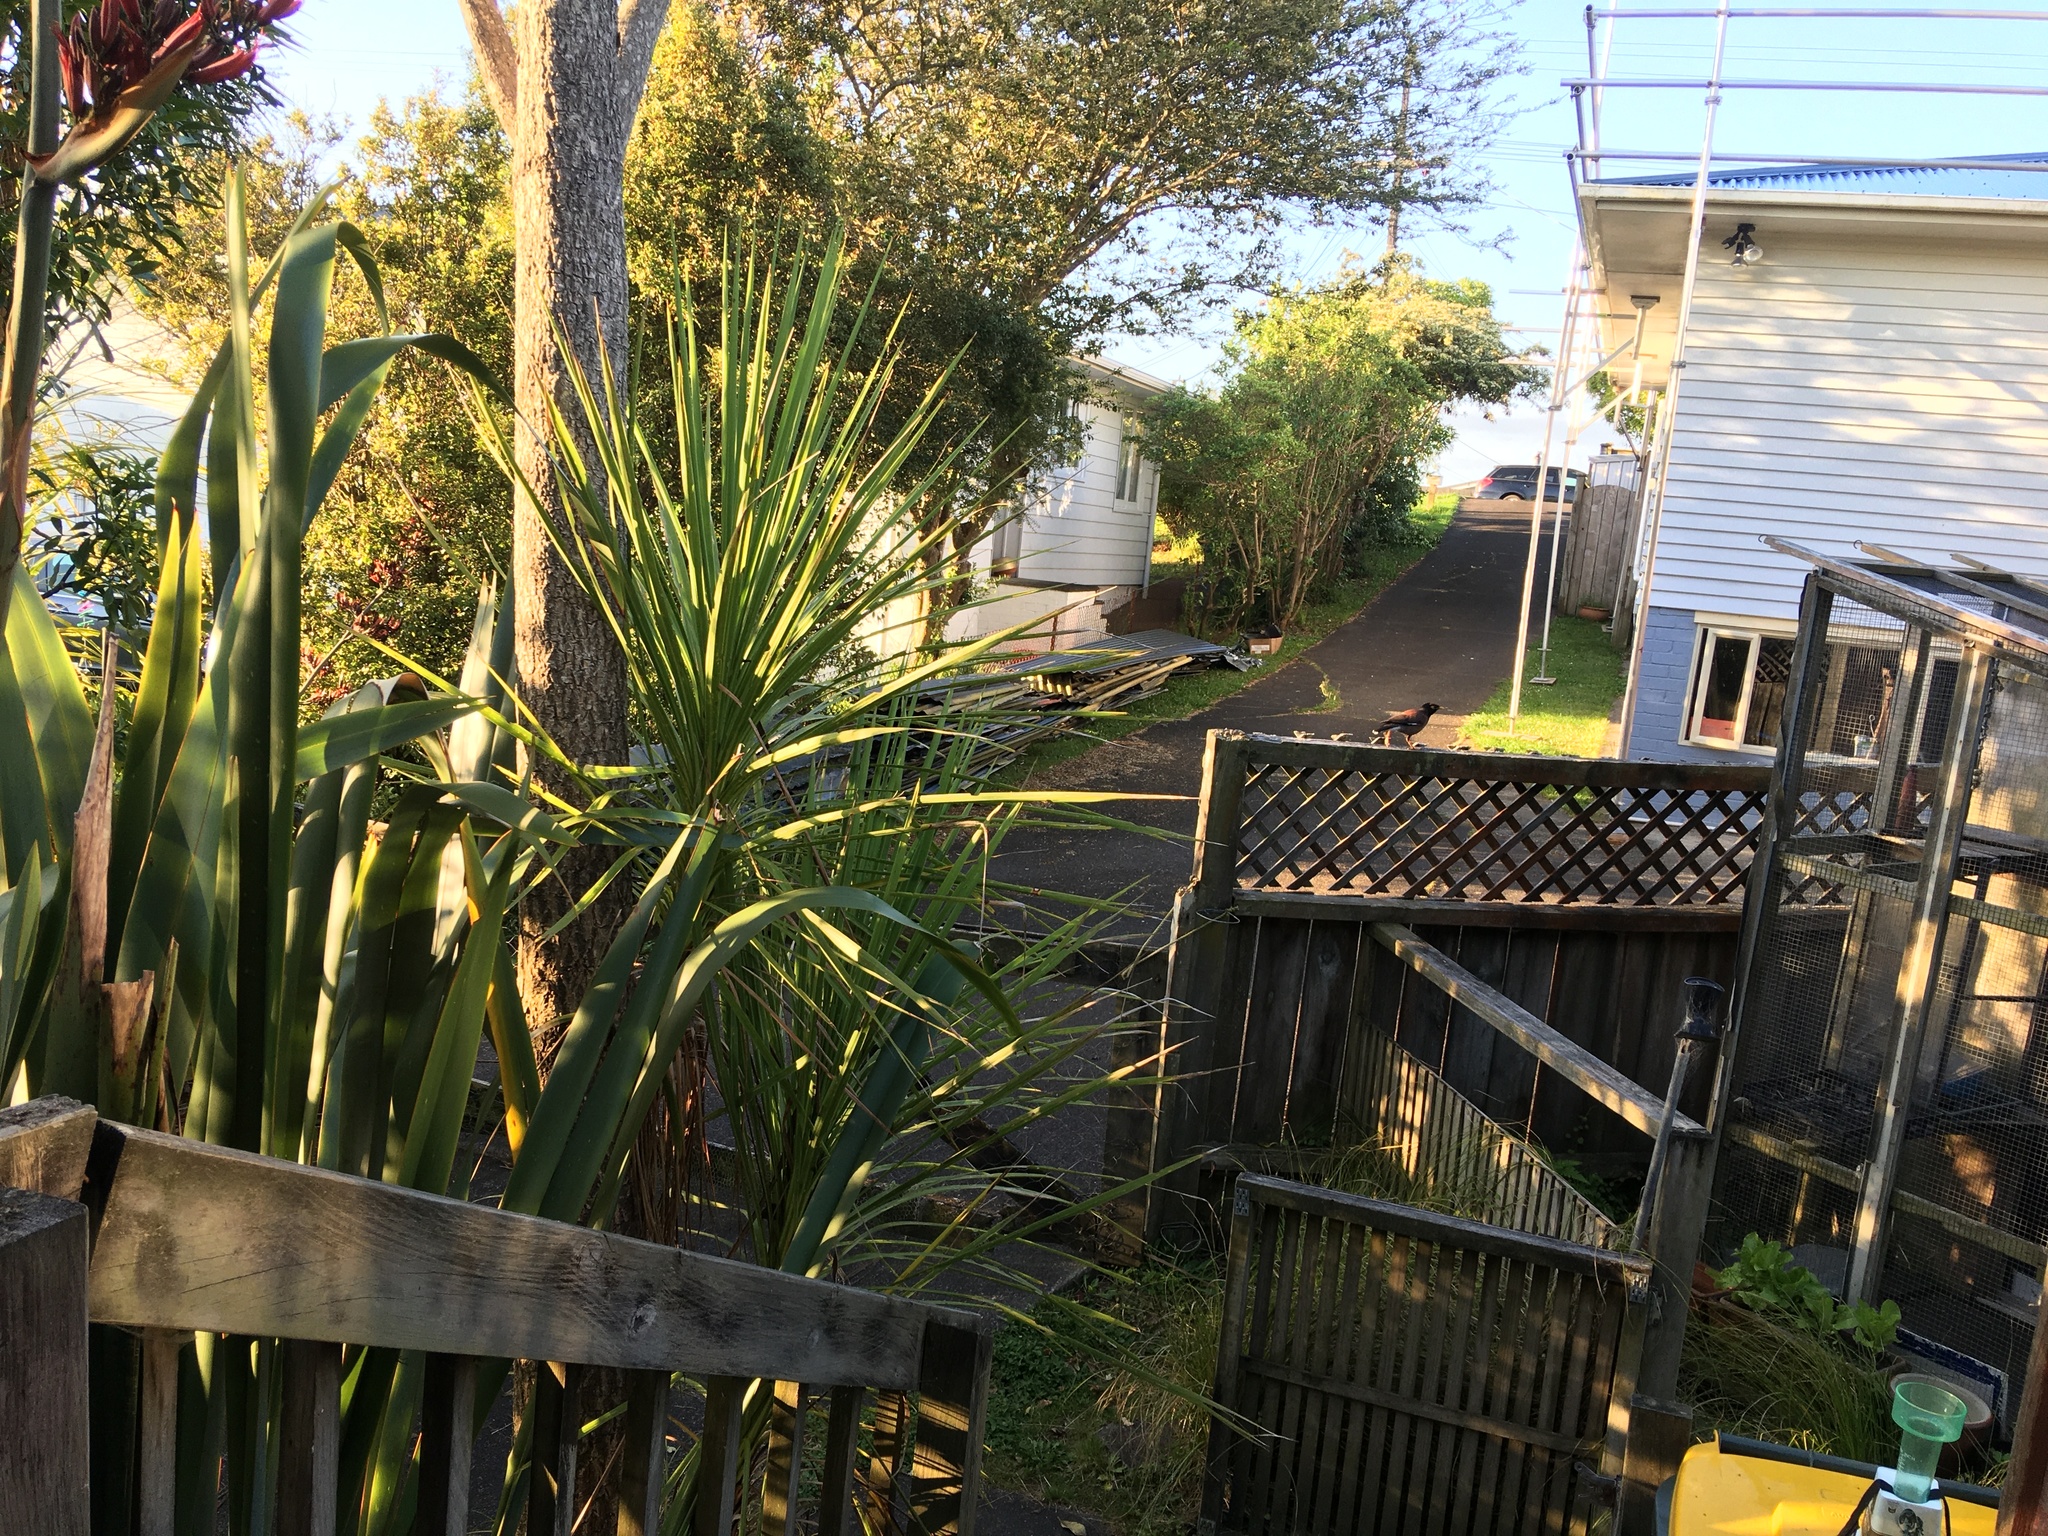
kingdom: Animalia
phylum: Chordata
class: Aves
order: Passeriformes
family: Sturnidae
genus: Acridotheres
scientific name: Acridotheres tristis
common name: Common myna
